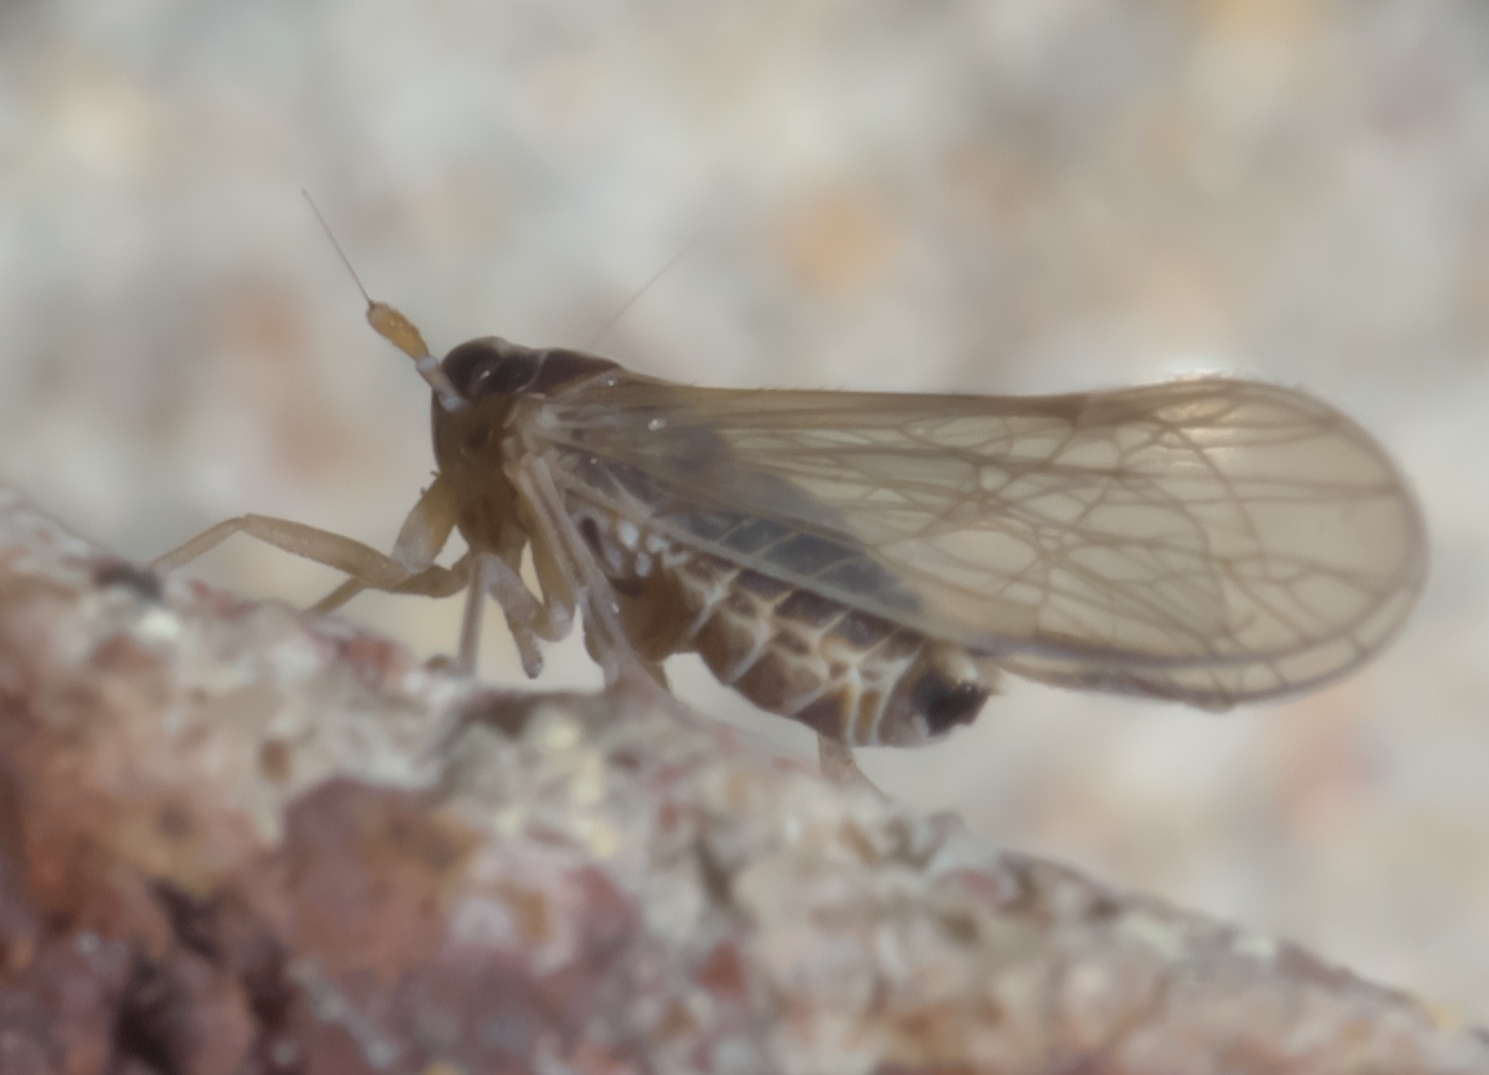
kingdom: Animalia
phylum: Arthropoda
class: Insecta
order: Hemiptera
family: Delphacidae
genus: Muellerianella
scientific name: Muellerianella laminalis
